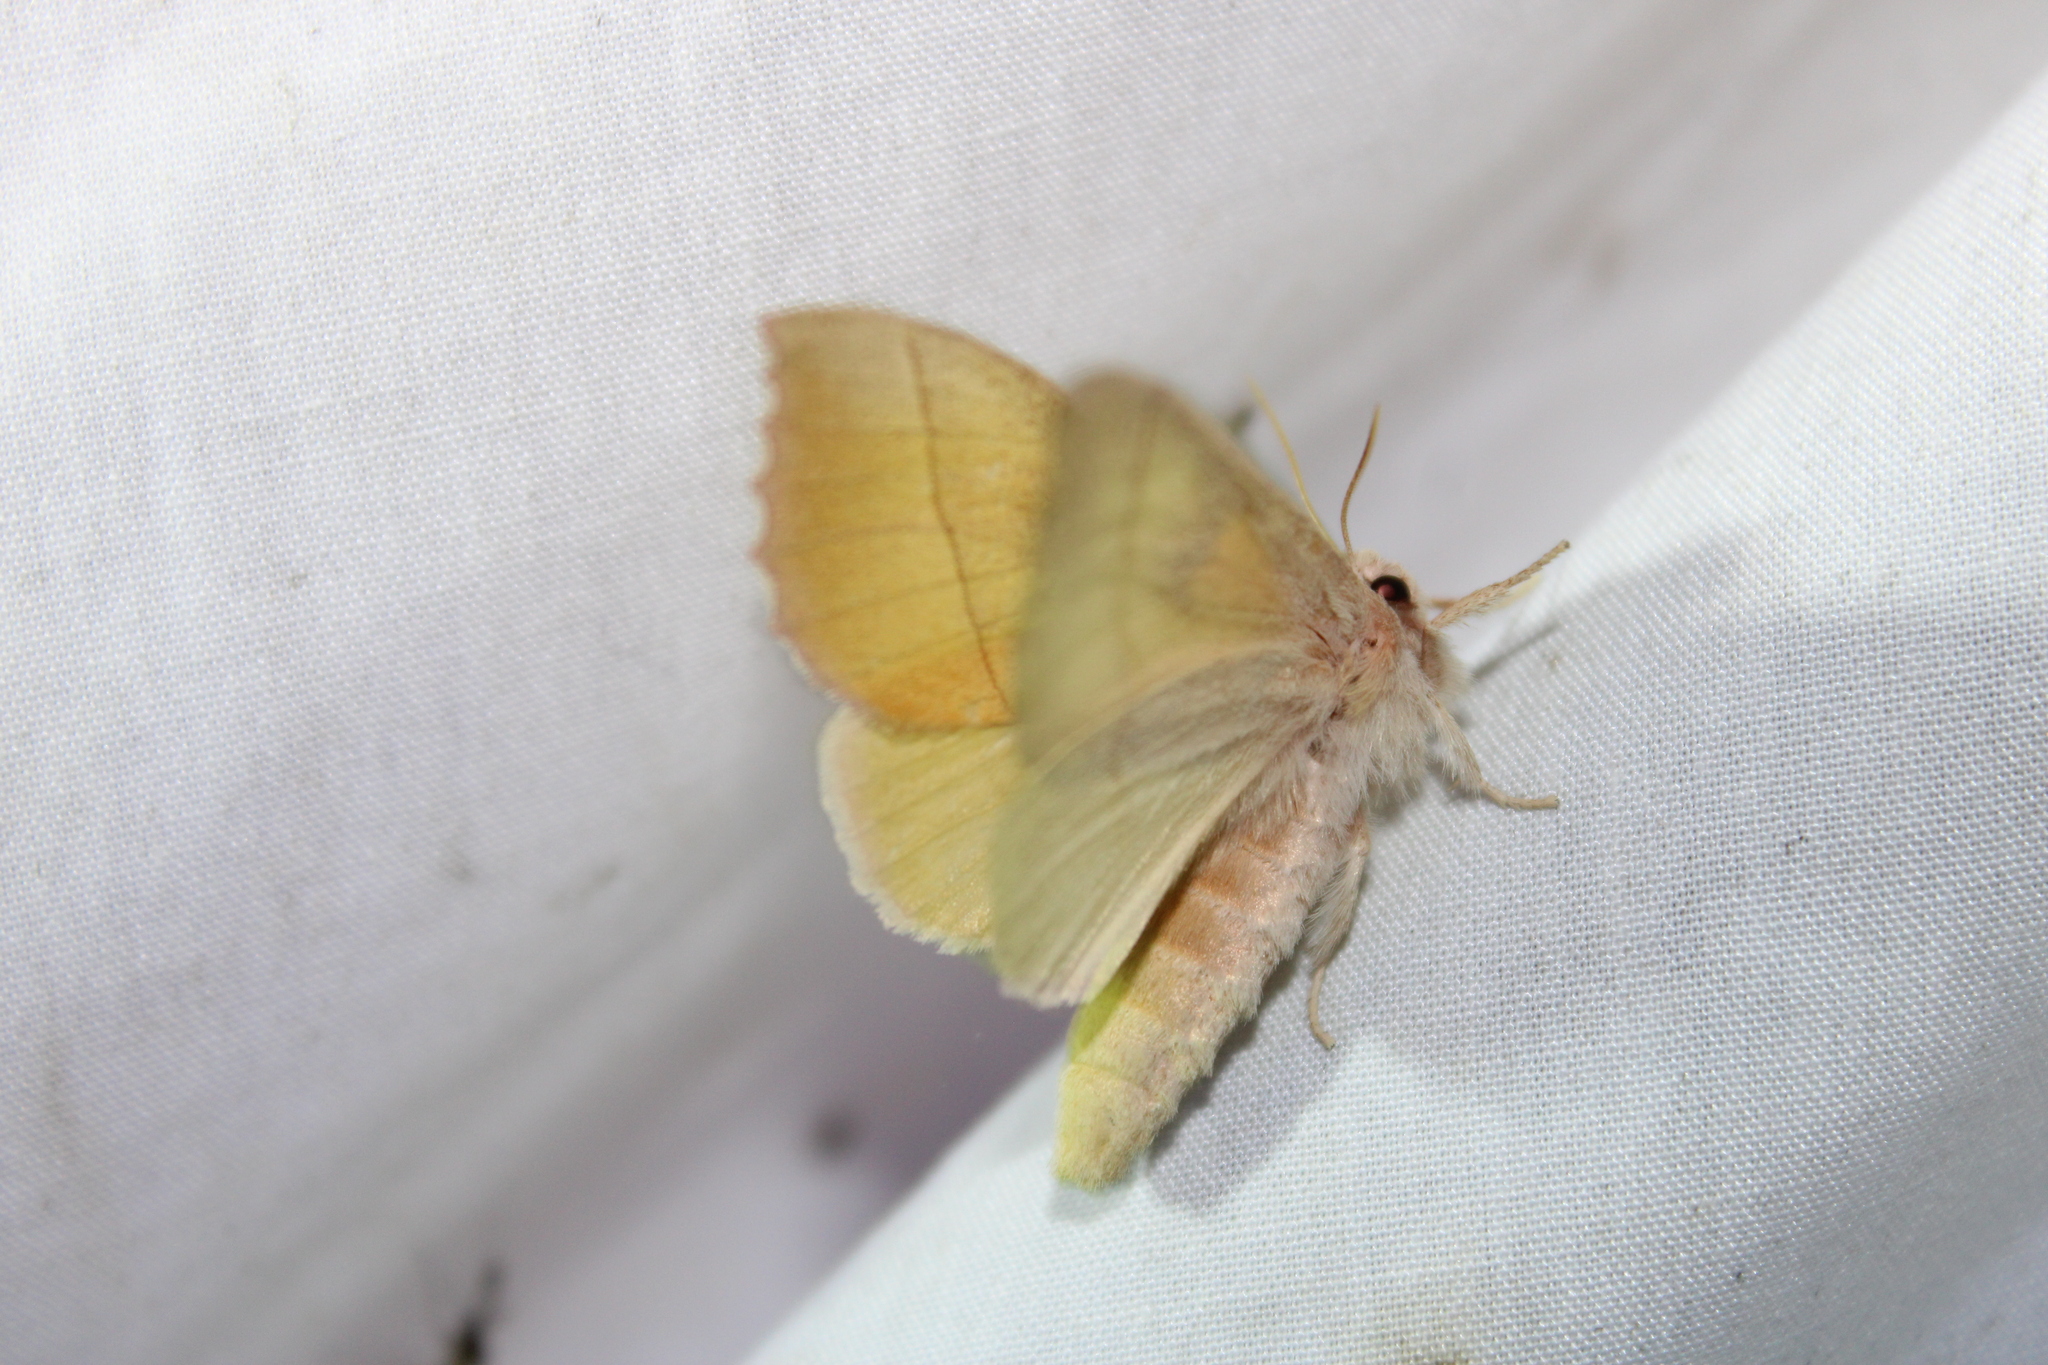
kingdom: Animalia
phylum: Arthropoda
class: Insecta
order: Lepidoptera
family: Notodontidae
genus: Nadata
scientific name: Nadata gibbosa
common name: White-dotted prominent
